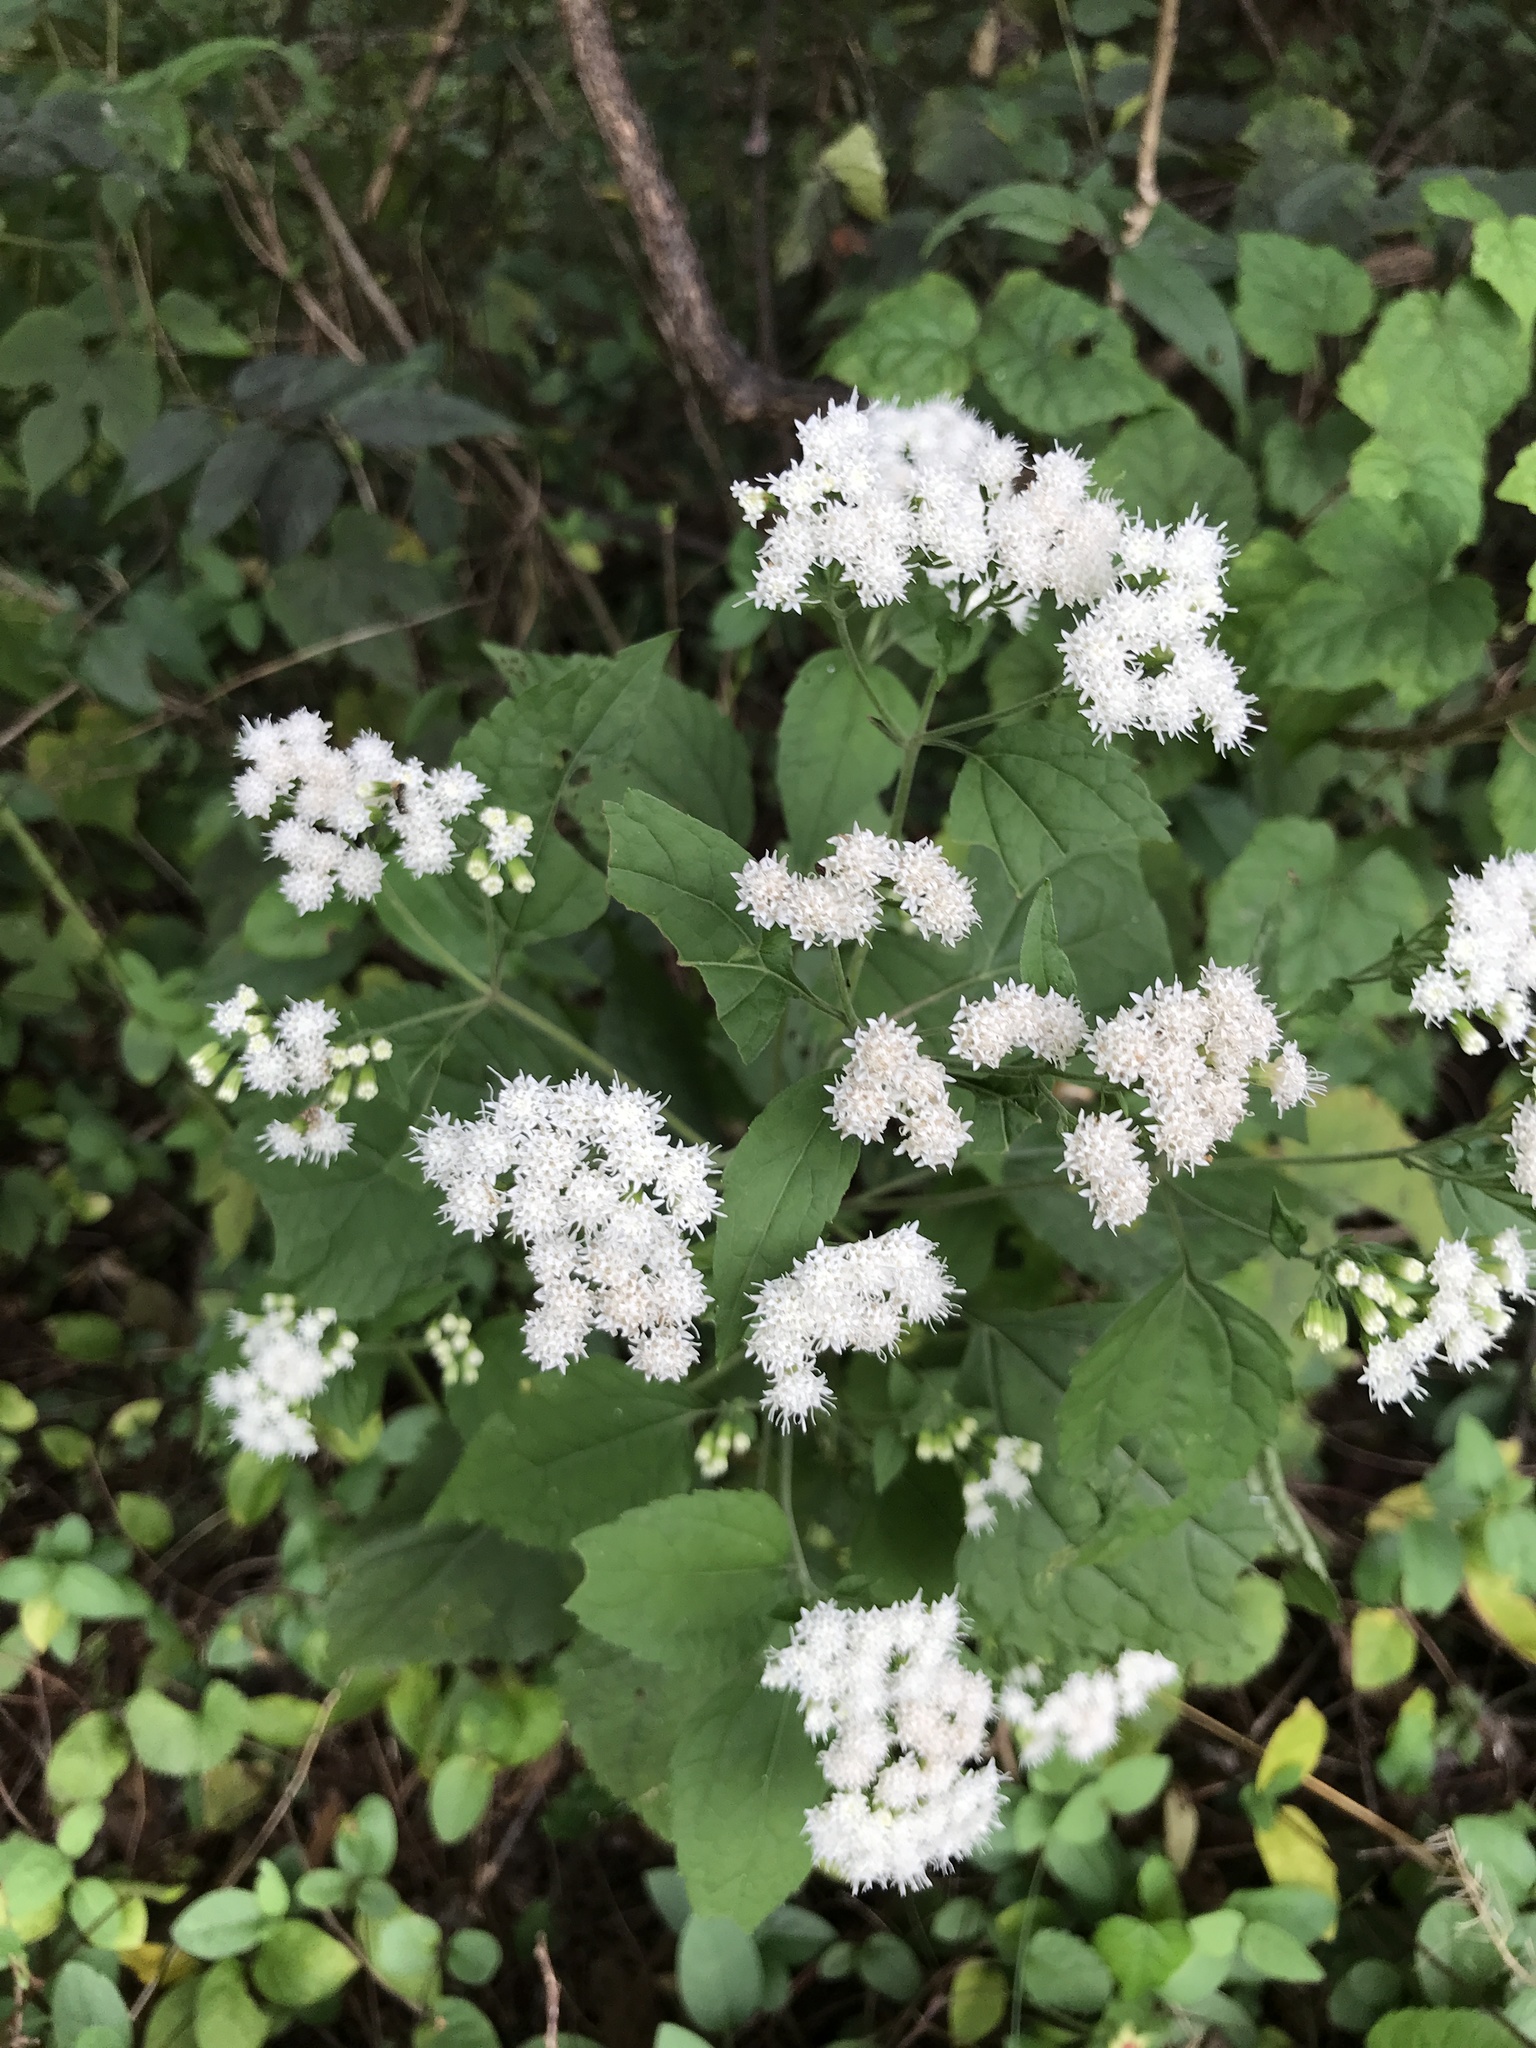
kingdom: Plantae
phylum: Tracheophyta
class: Magnoliopsida
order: Asterales
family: Asteraceae
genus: Ageratina
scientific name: Ageratina altissima
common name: White snakeroot
